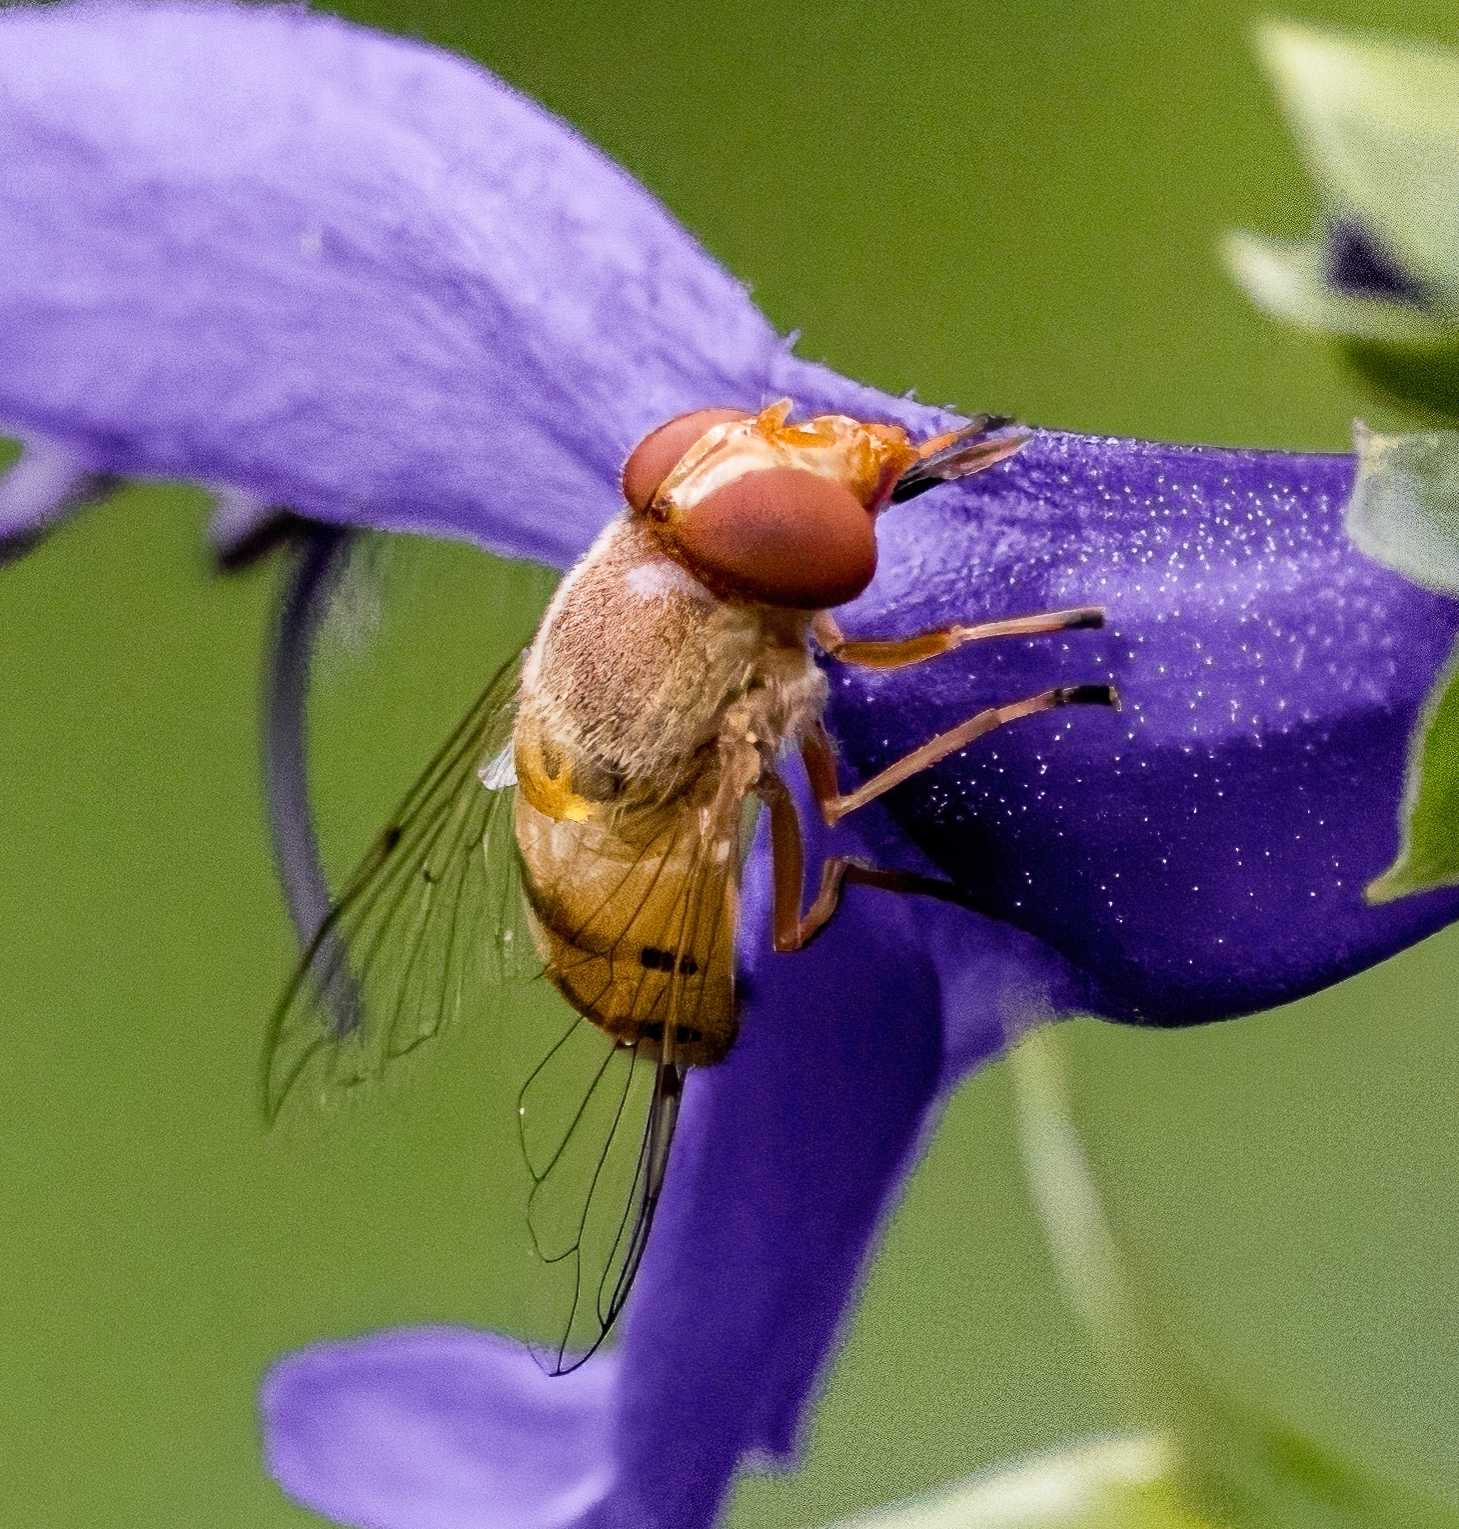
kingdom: Animalia
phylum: Arthropoda
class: Insecta
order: Diptera
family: Syrphidae
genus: Copestylum
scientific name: Copestylum sexmaculatum
